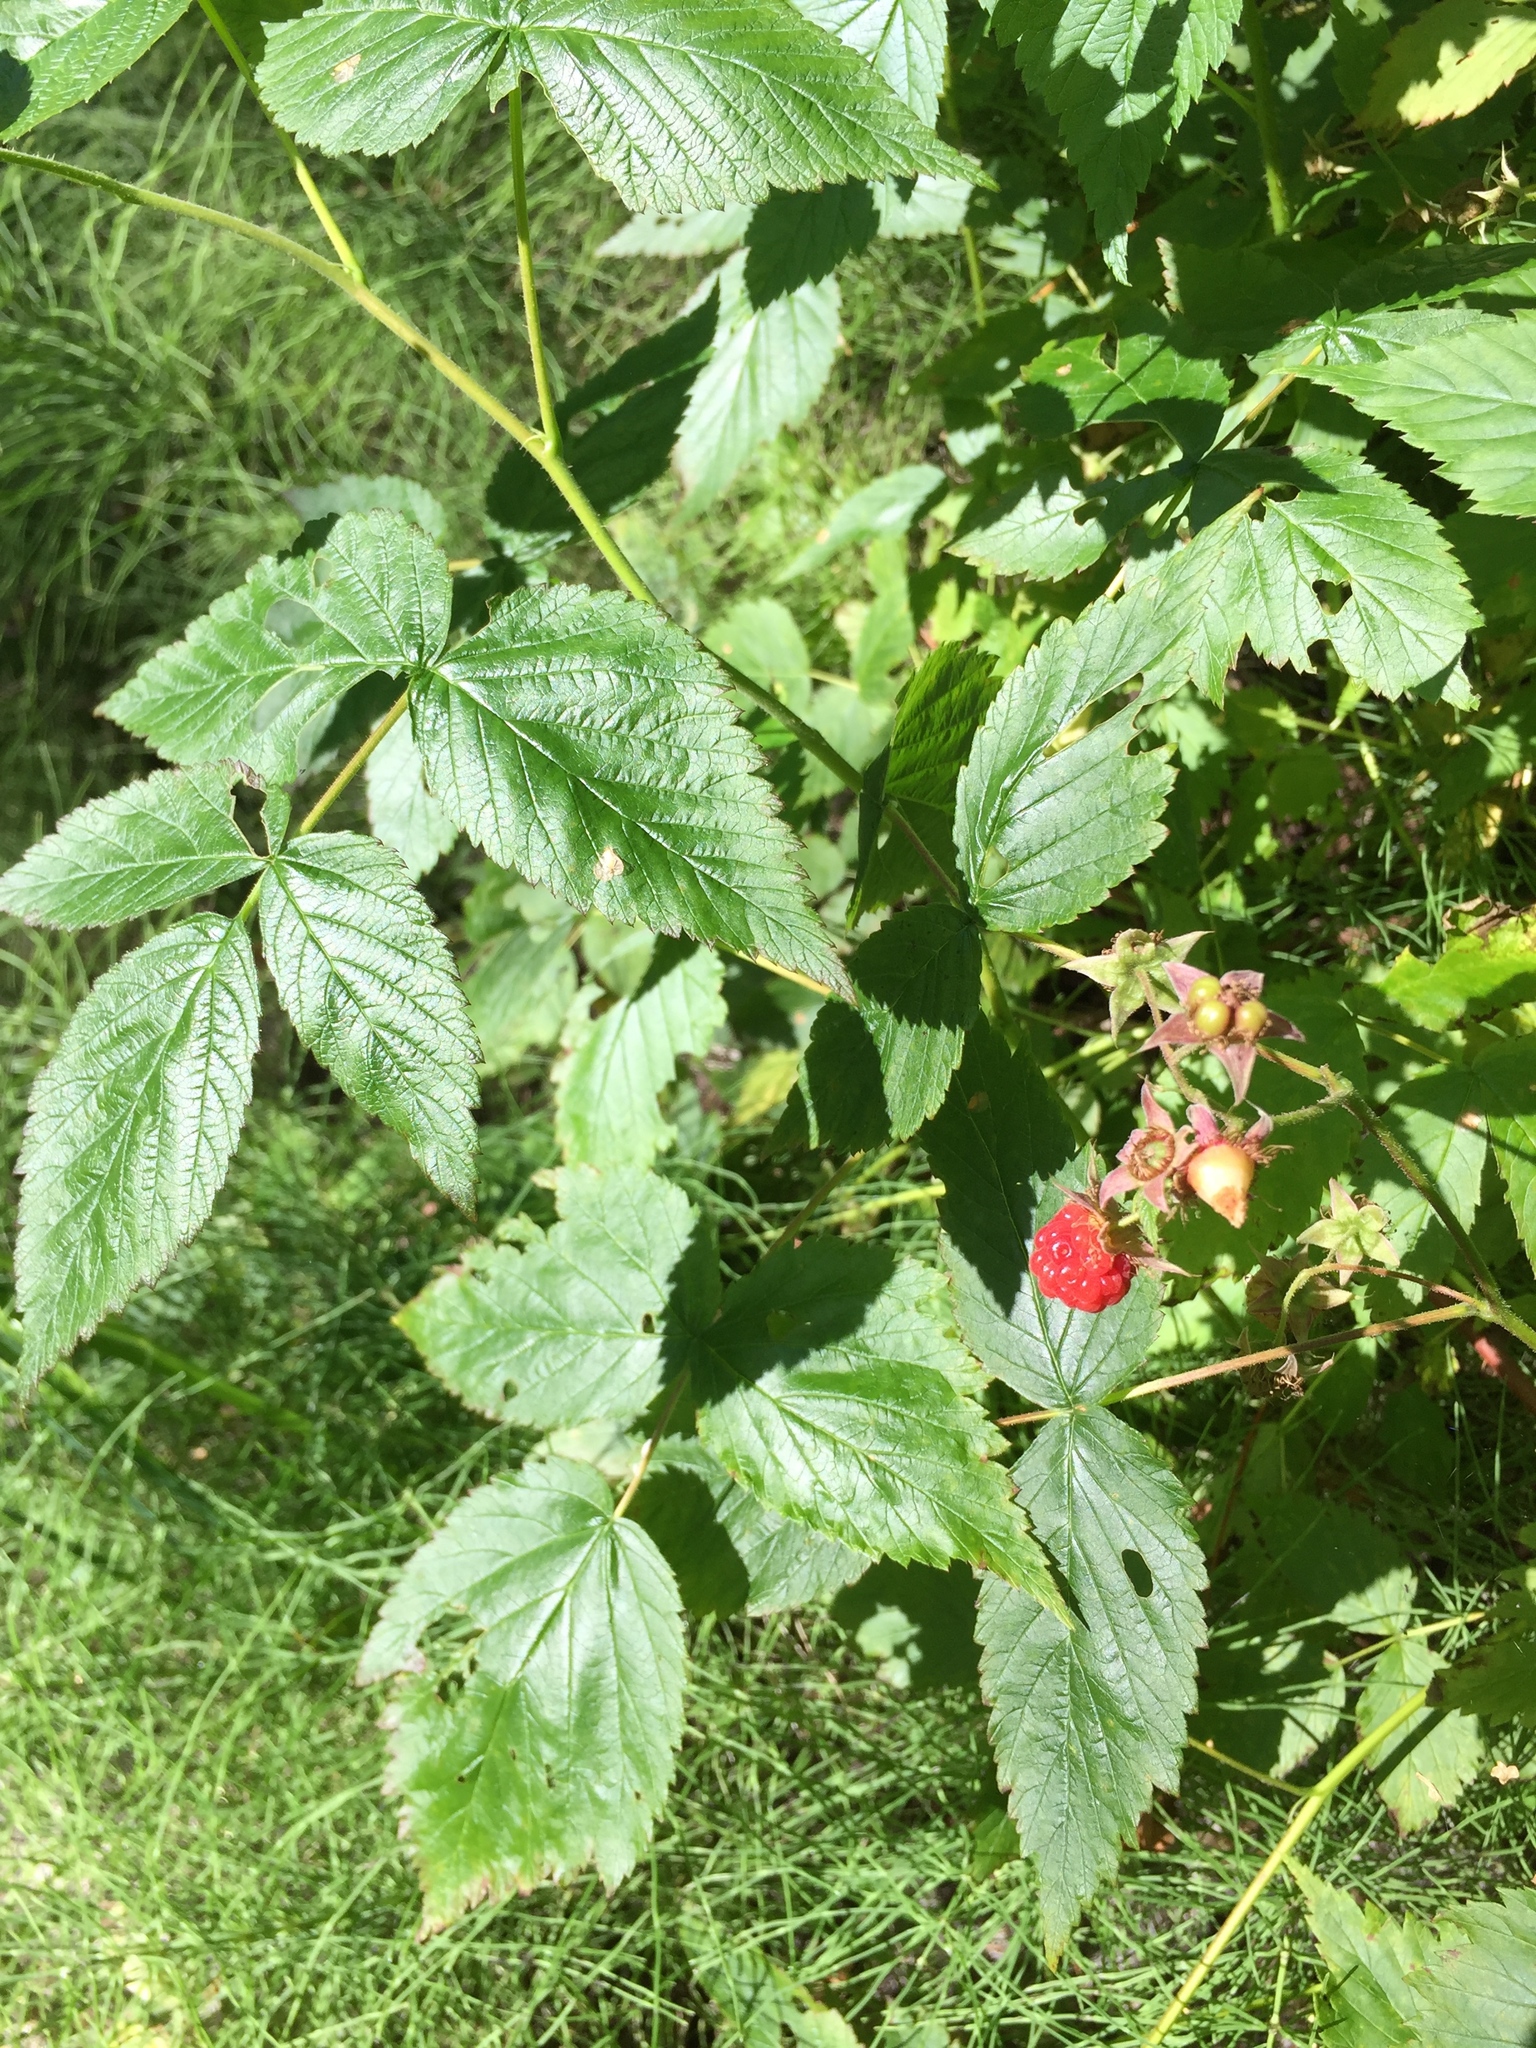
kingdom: Plantae
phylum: Tracheophyta
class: Magnoliopsida
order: Rosales
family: Rosaceae
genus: Rubus
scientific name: Rubus idaeus
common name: Raspberry
